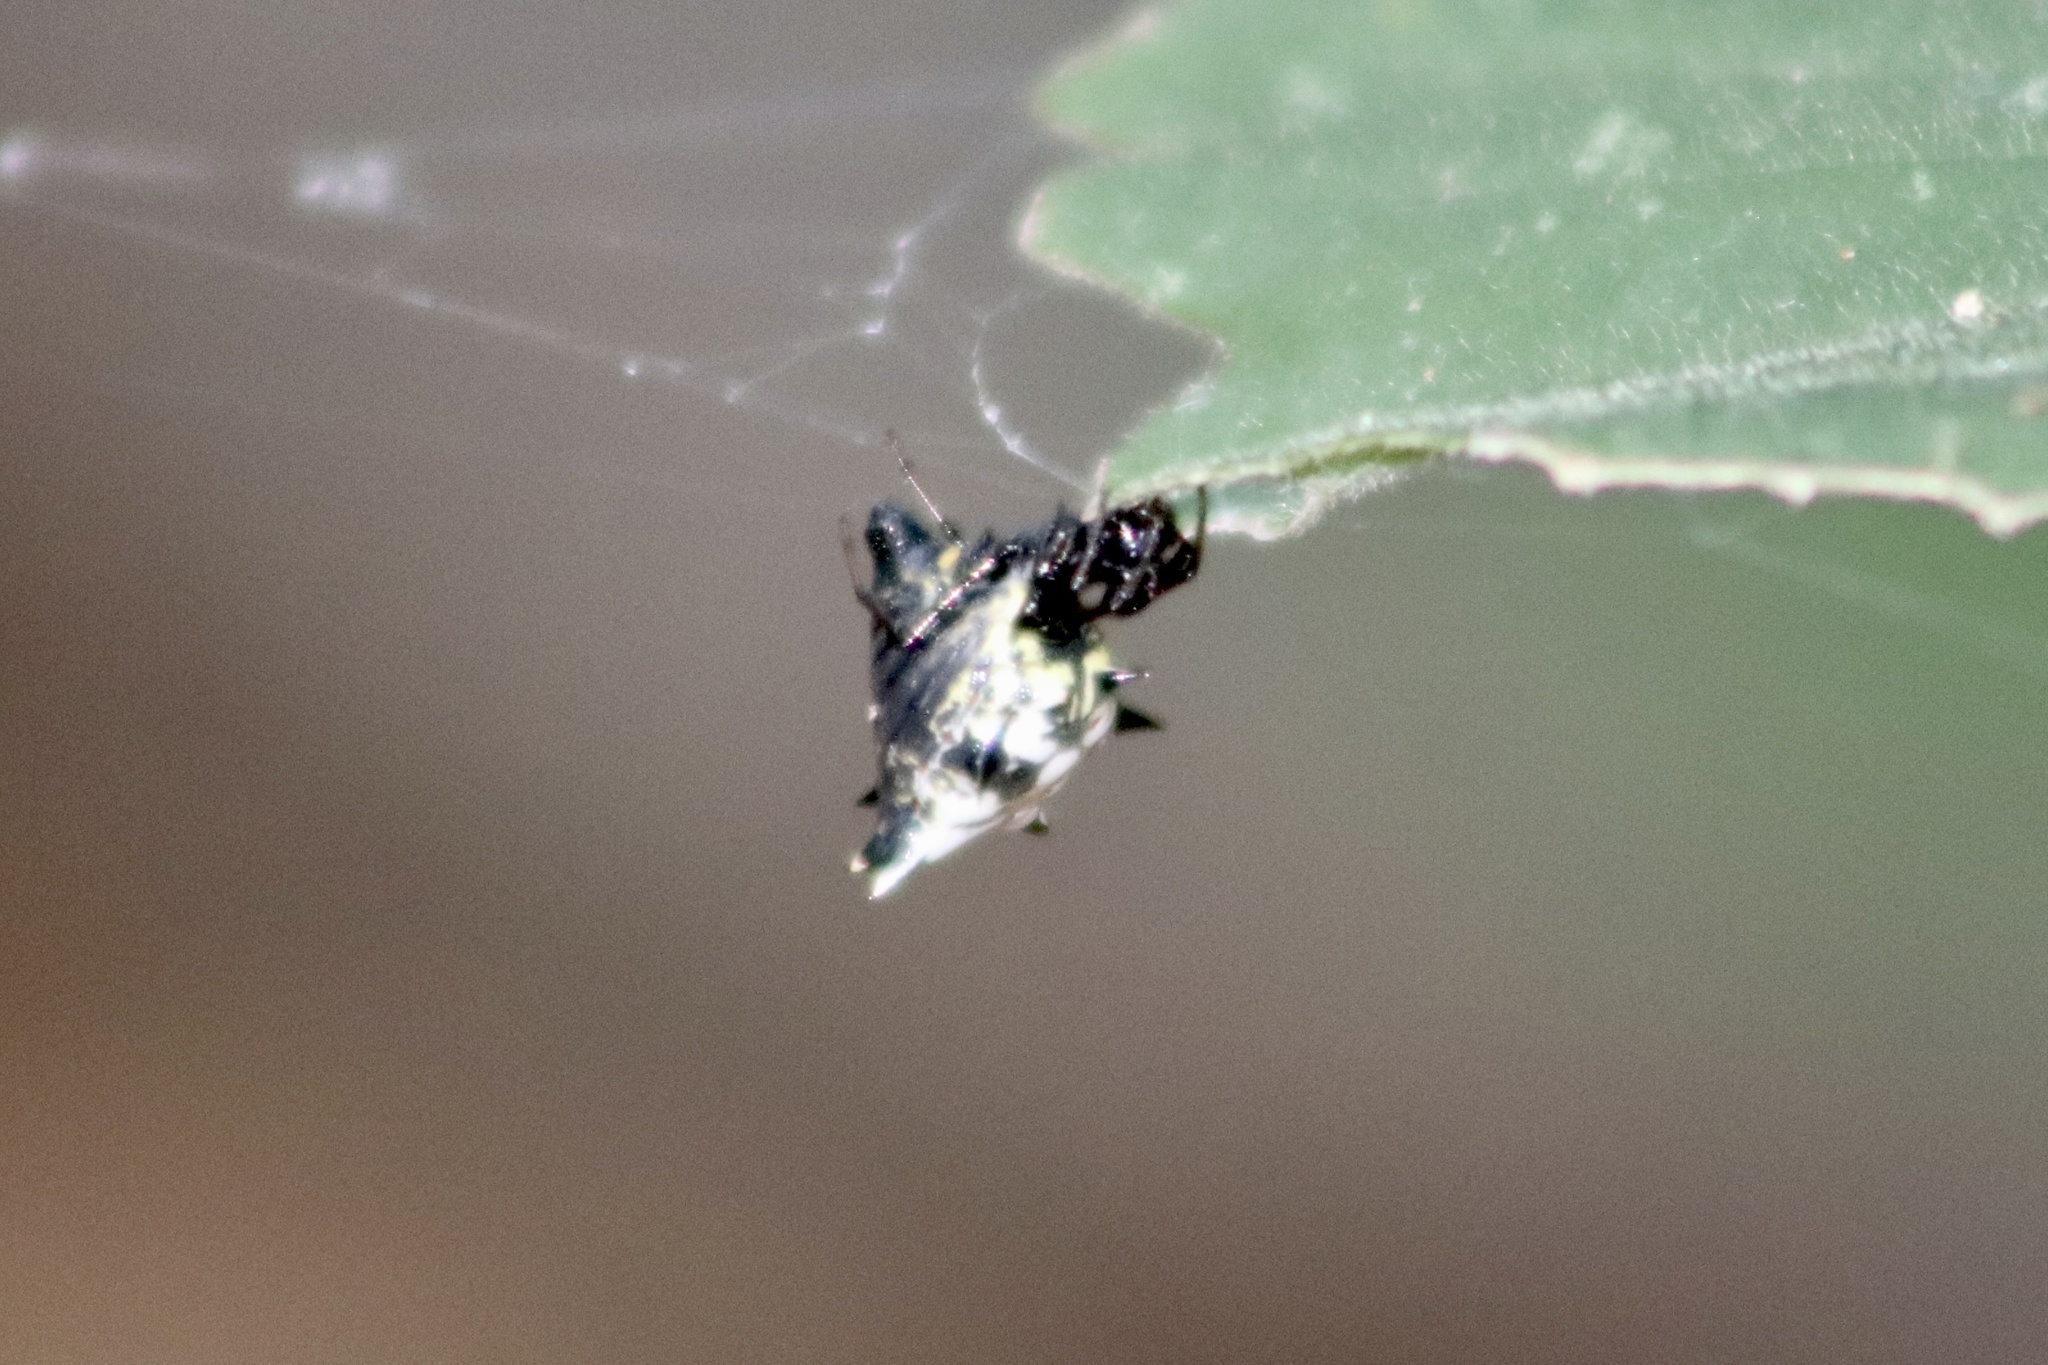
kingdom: Animalia
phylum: Arthropoda
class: Arachnida
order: Araneae
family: Araneidae
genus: Micrathena
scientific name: Micrathena gracilis
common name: Orb weavers
